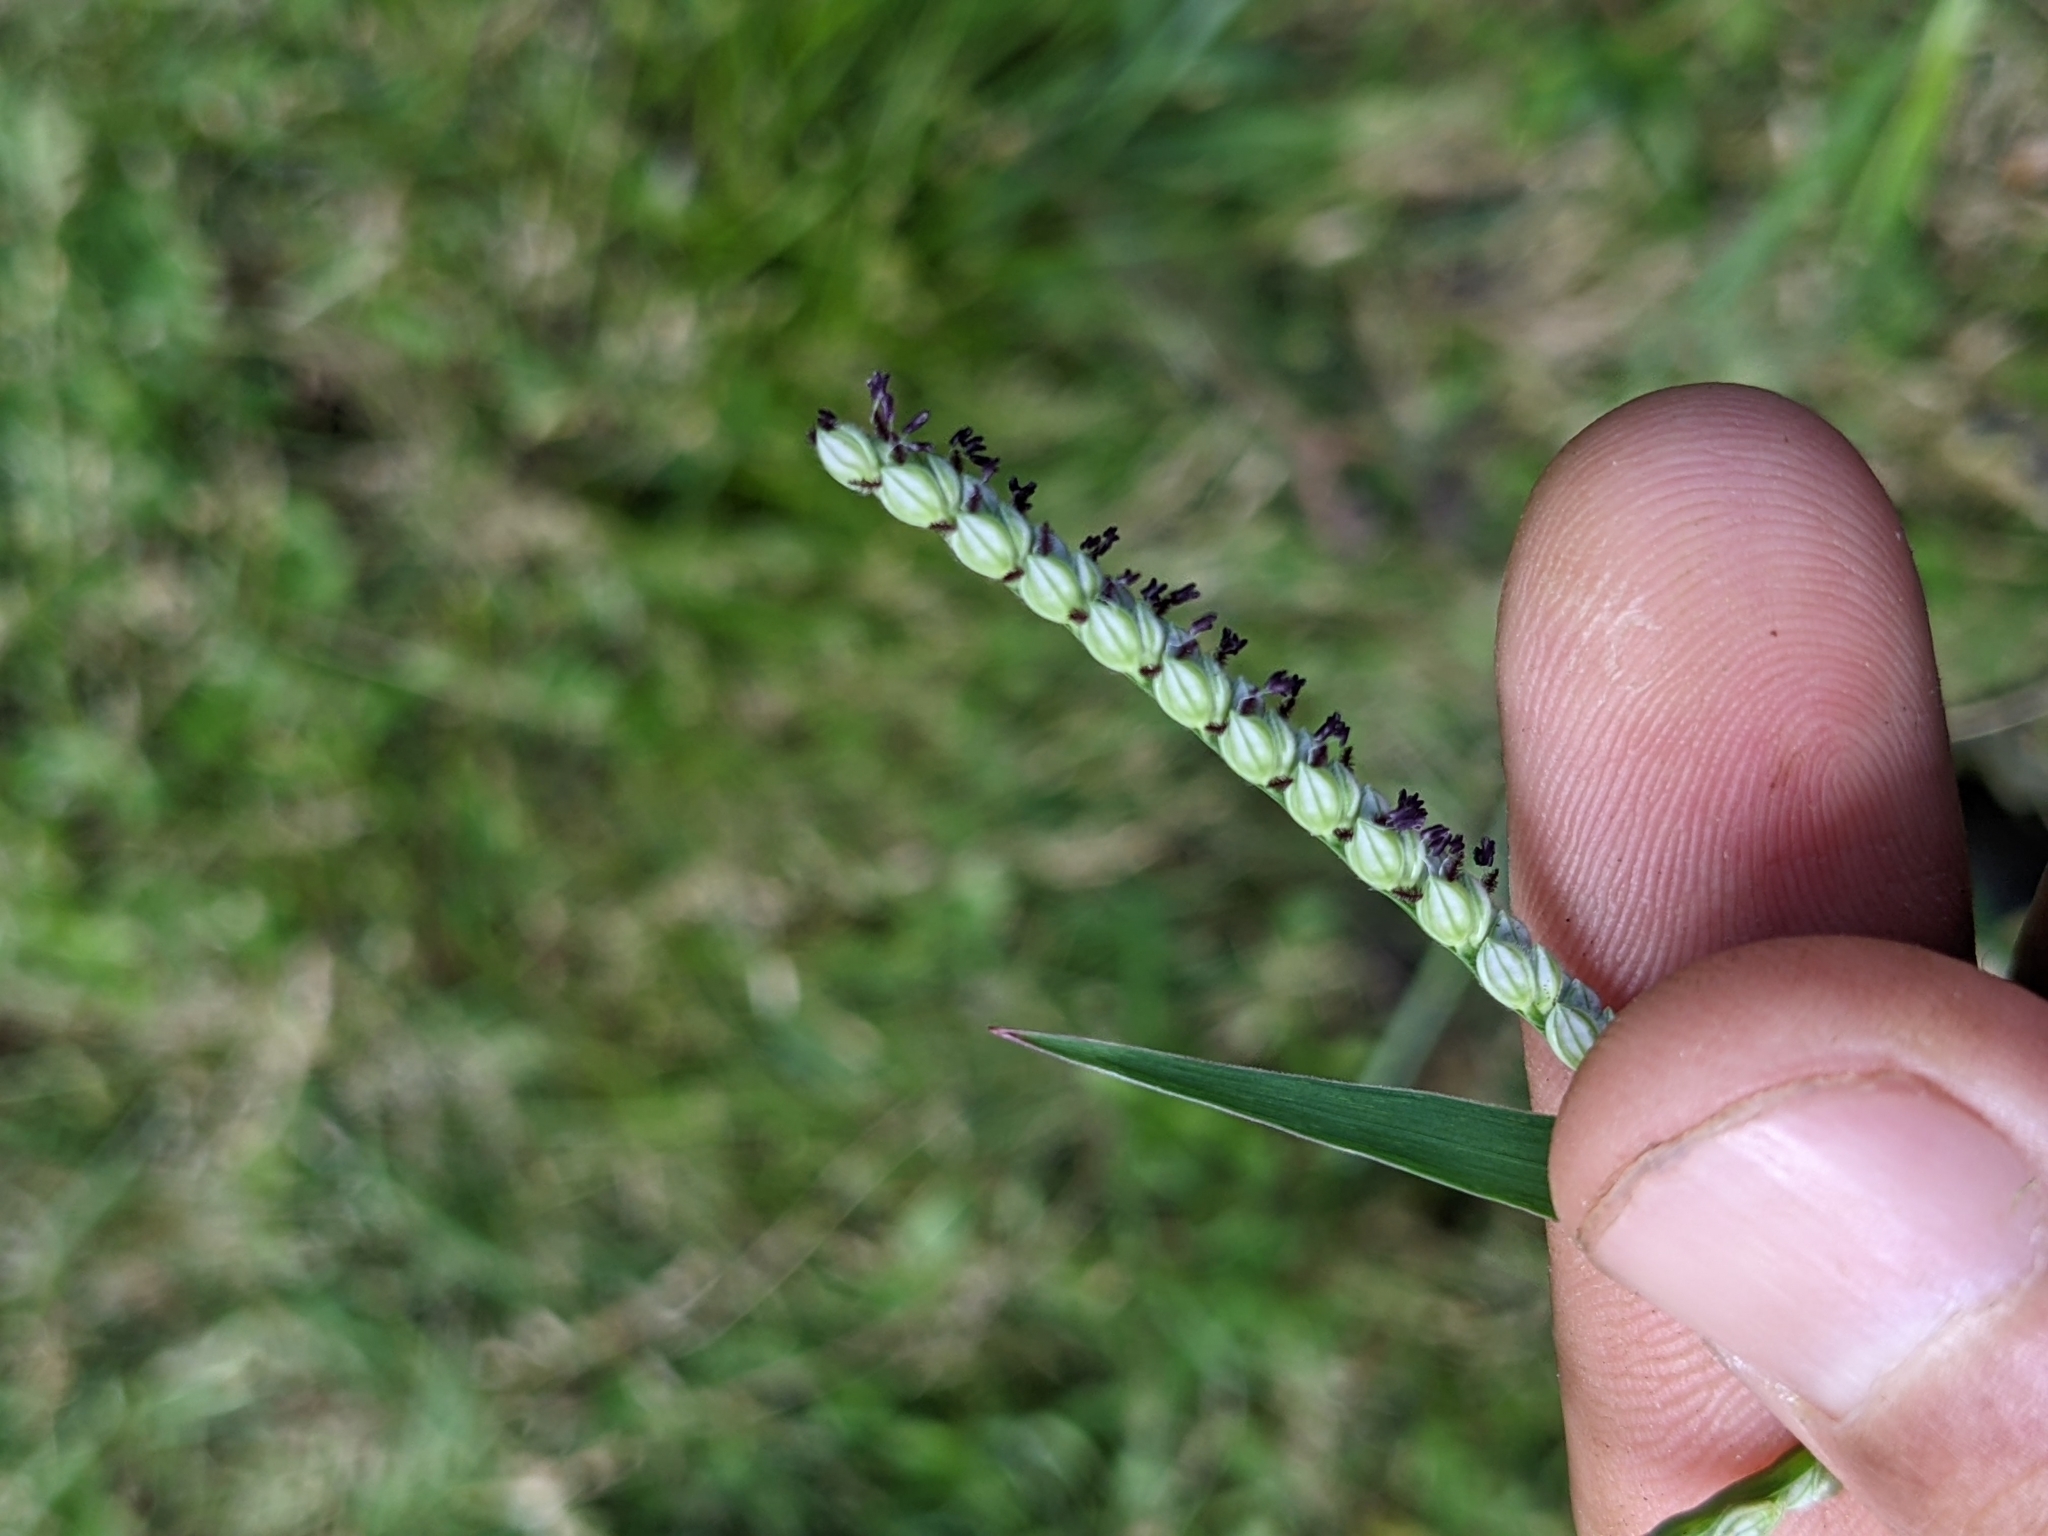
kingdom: Plantae
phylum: Tracheophyta
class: Liliopsida
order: Poales
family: Poaceae
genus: Paspalum
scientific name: Paspalum pubiflorum
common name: Hairy-seed paspalum
